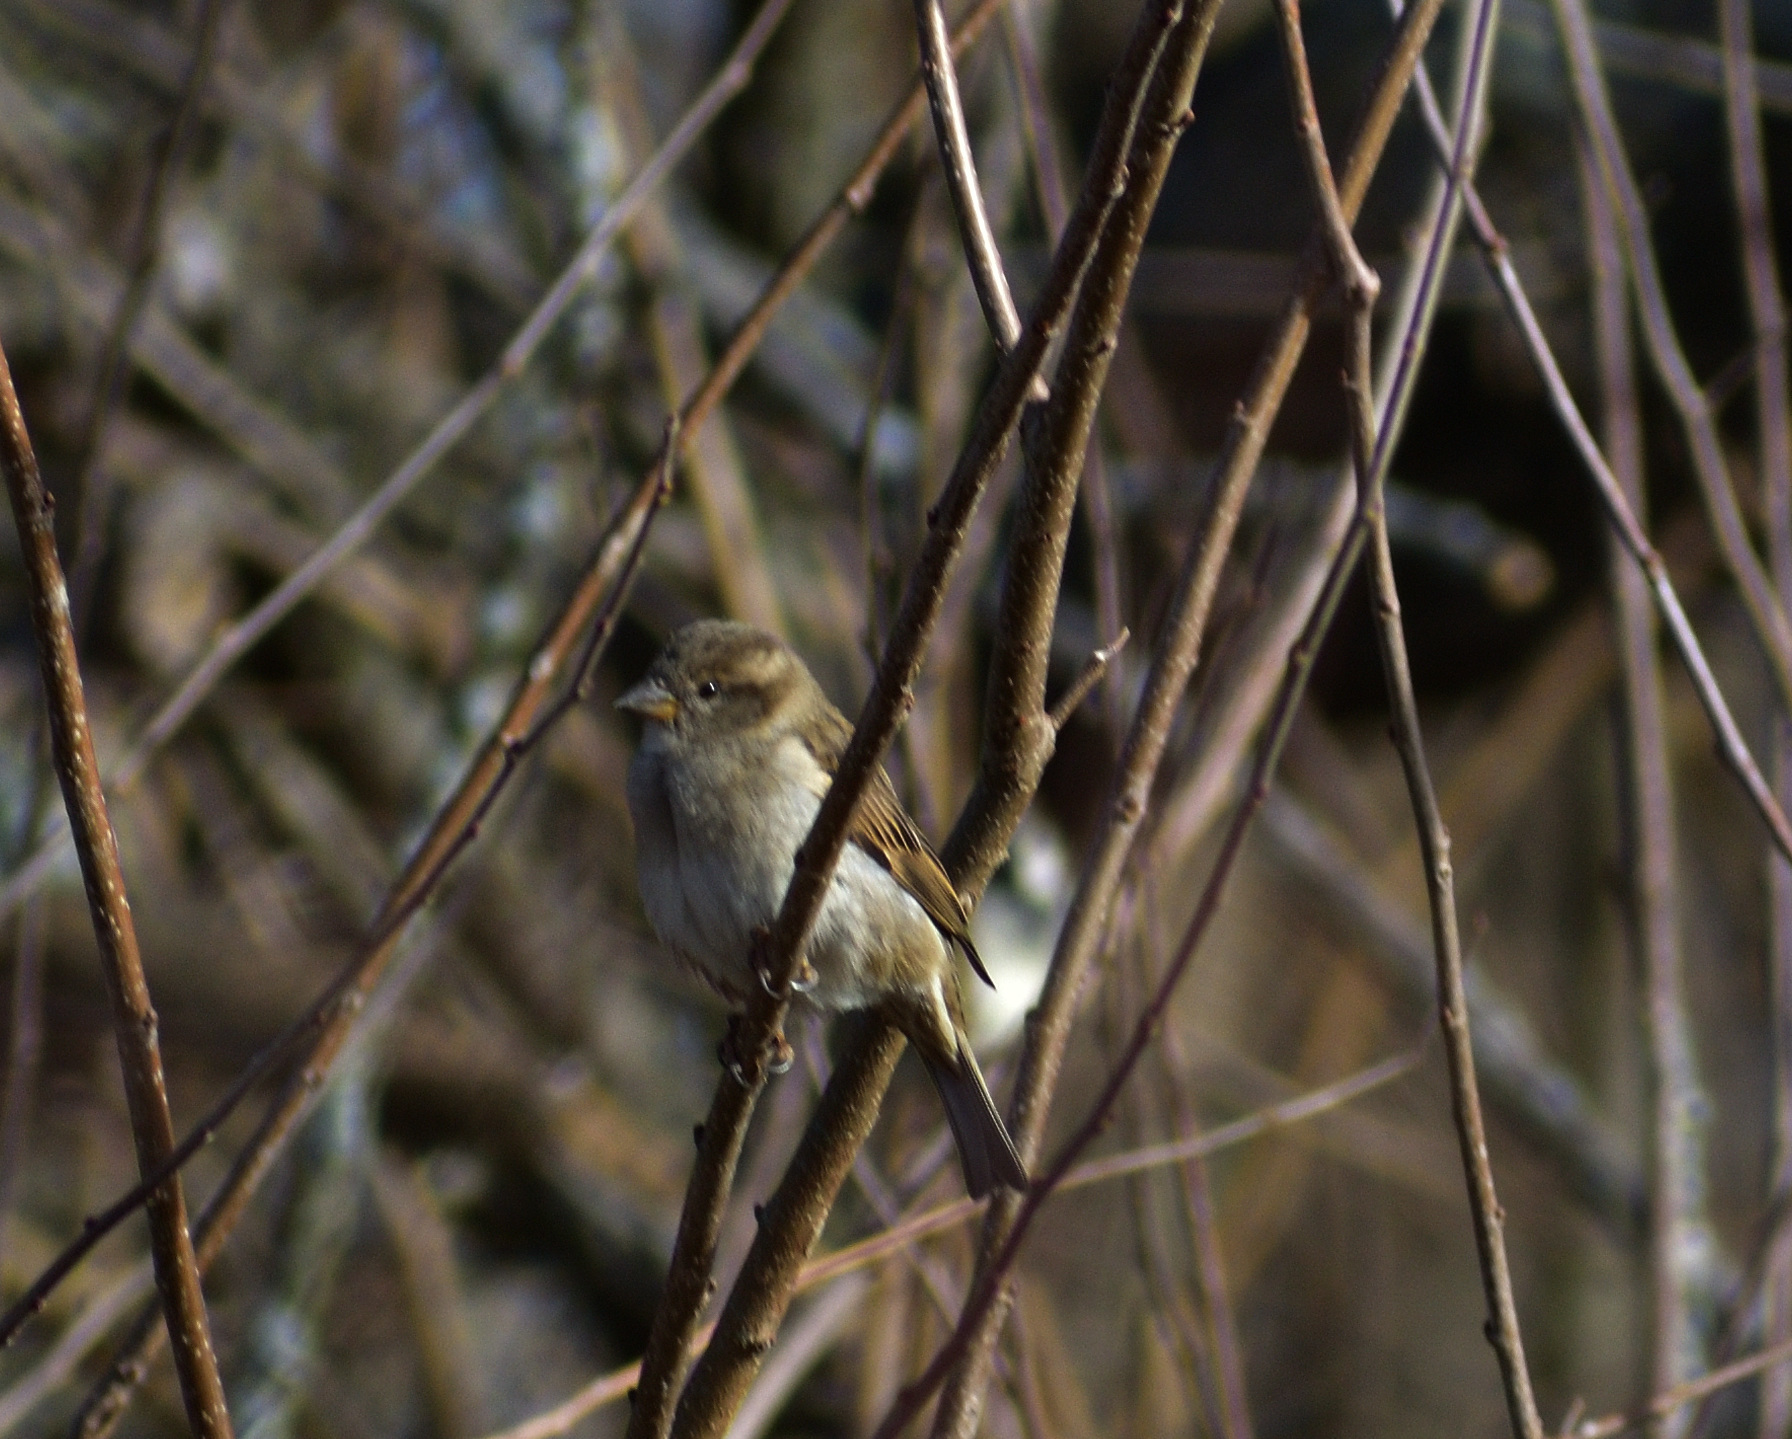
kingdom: Animalia
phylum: Chordata
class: Aves
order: Passeriformes
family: Passeridae
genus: Passer
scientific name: Passer domesticus
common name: House sparrow
